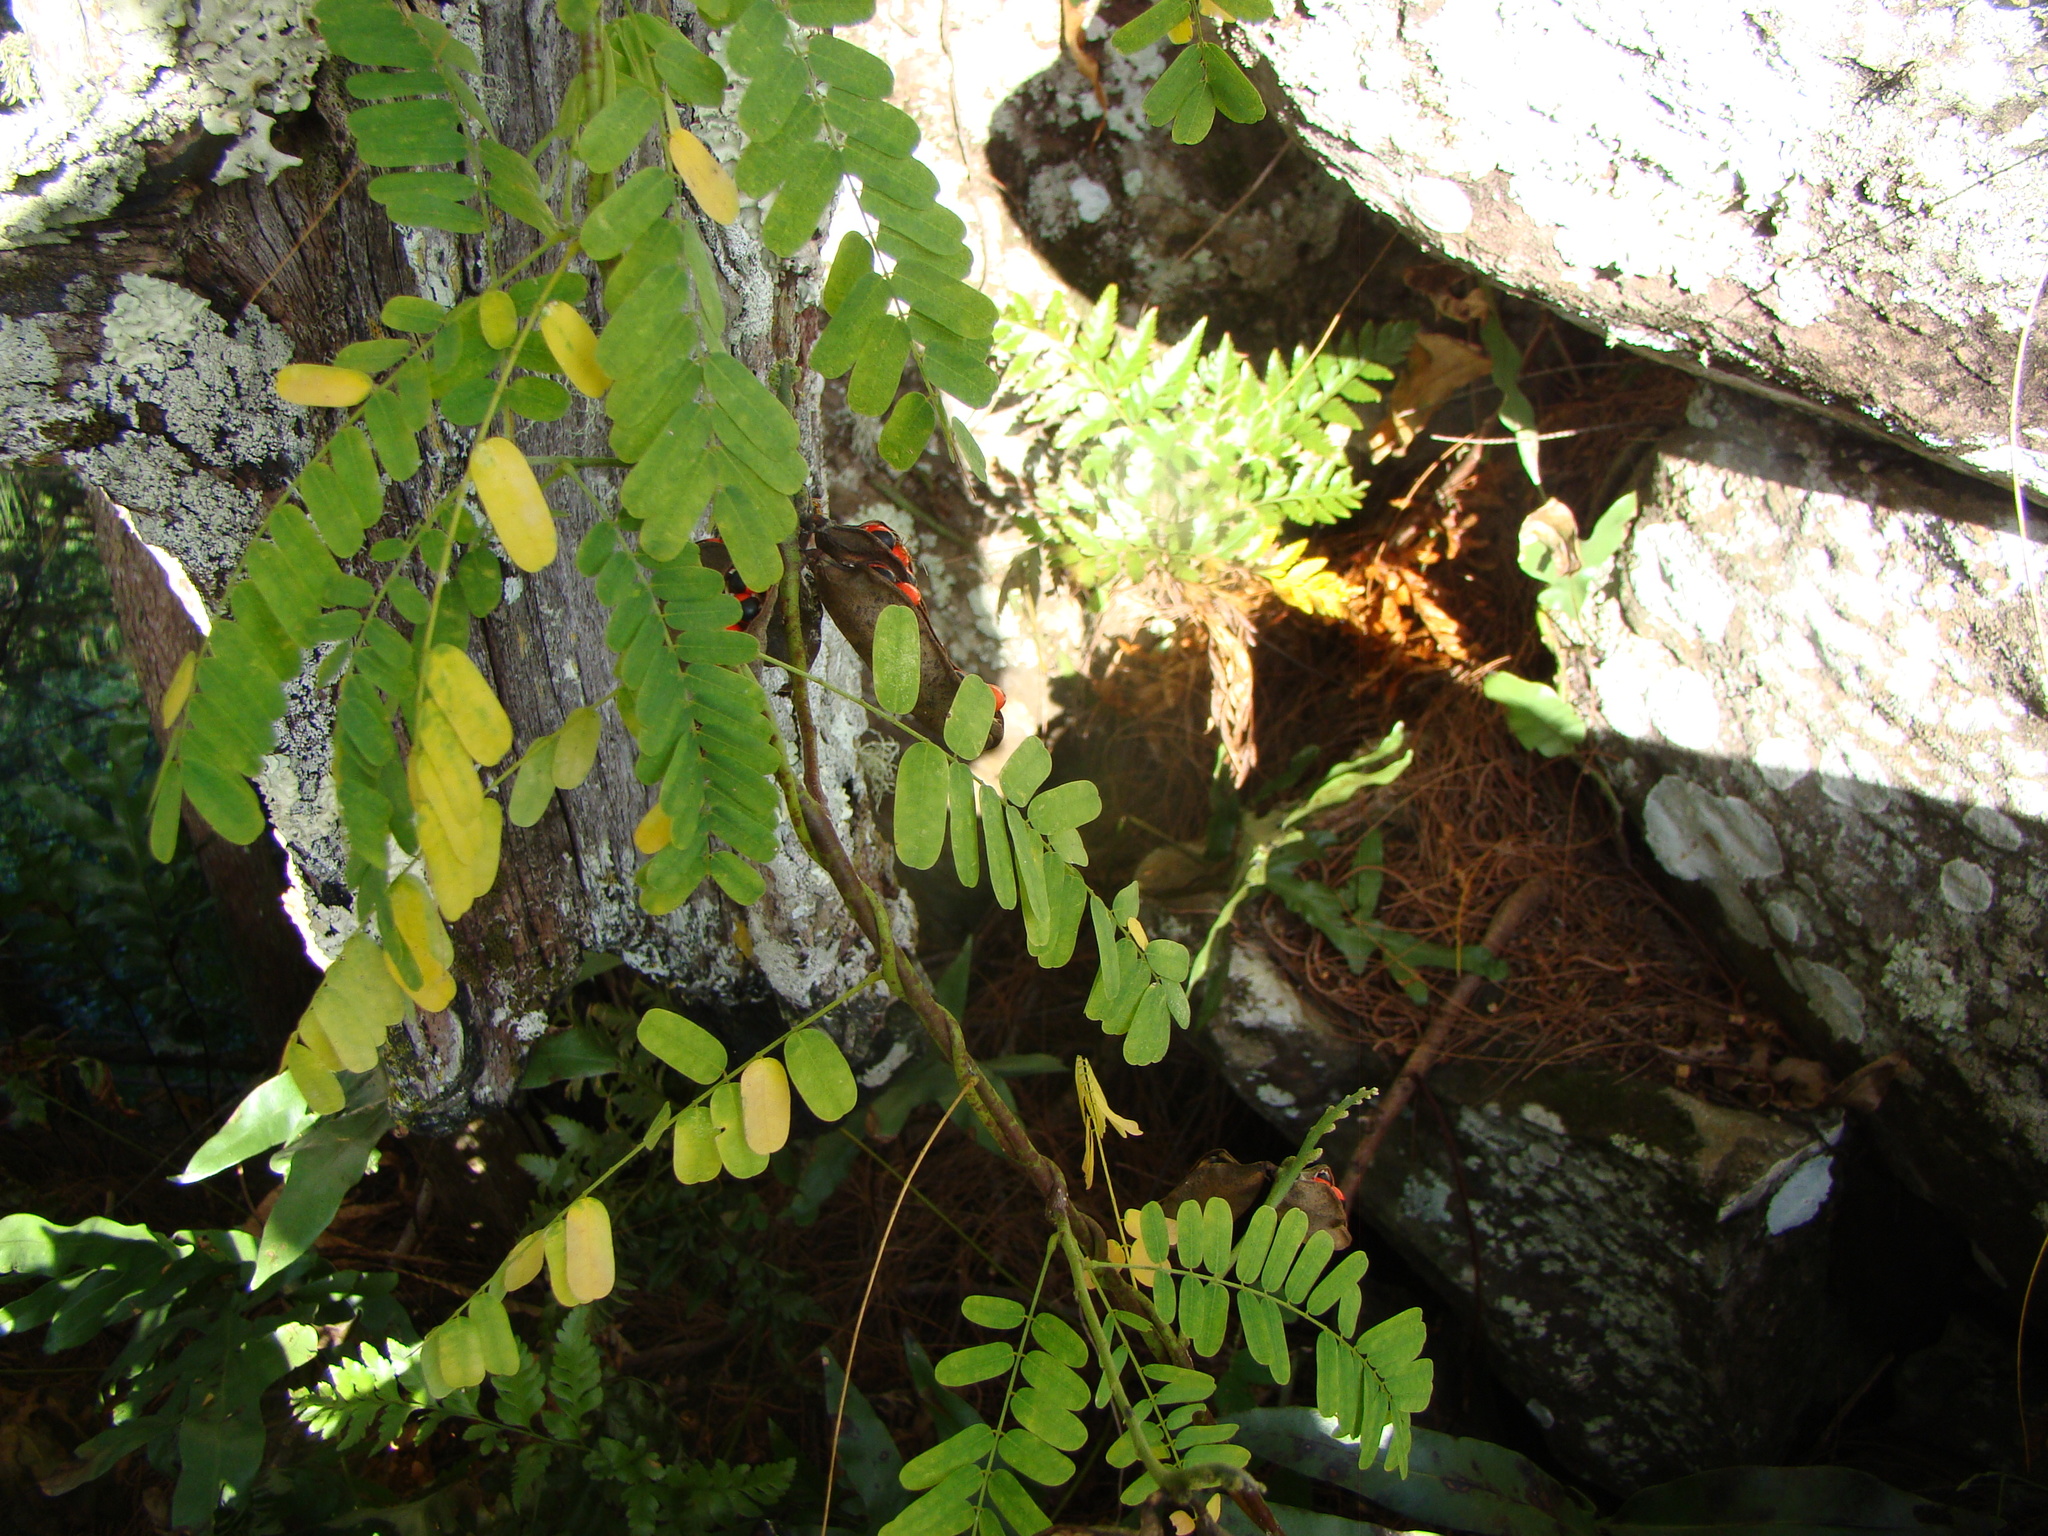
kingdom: Plantae
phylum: Tracheophyta
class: Magnoliopsida
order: Fabales
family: Fabaceae
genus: Abrus
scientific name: Abrus precatorius
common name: Rosarypea
